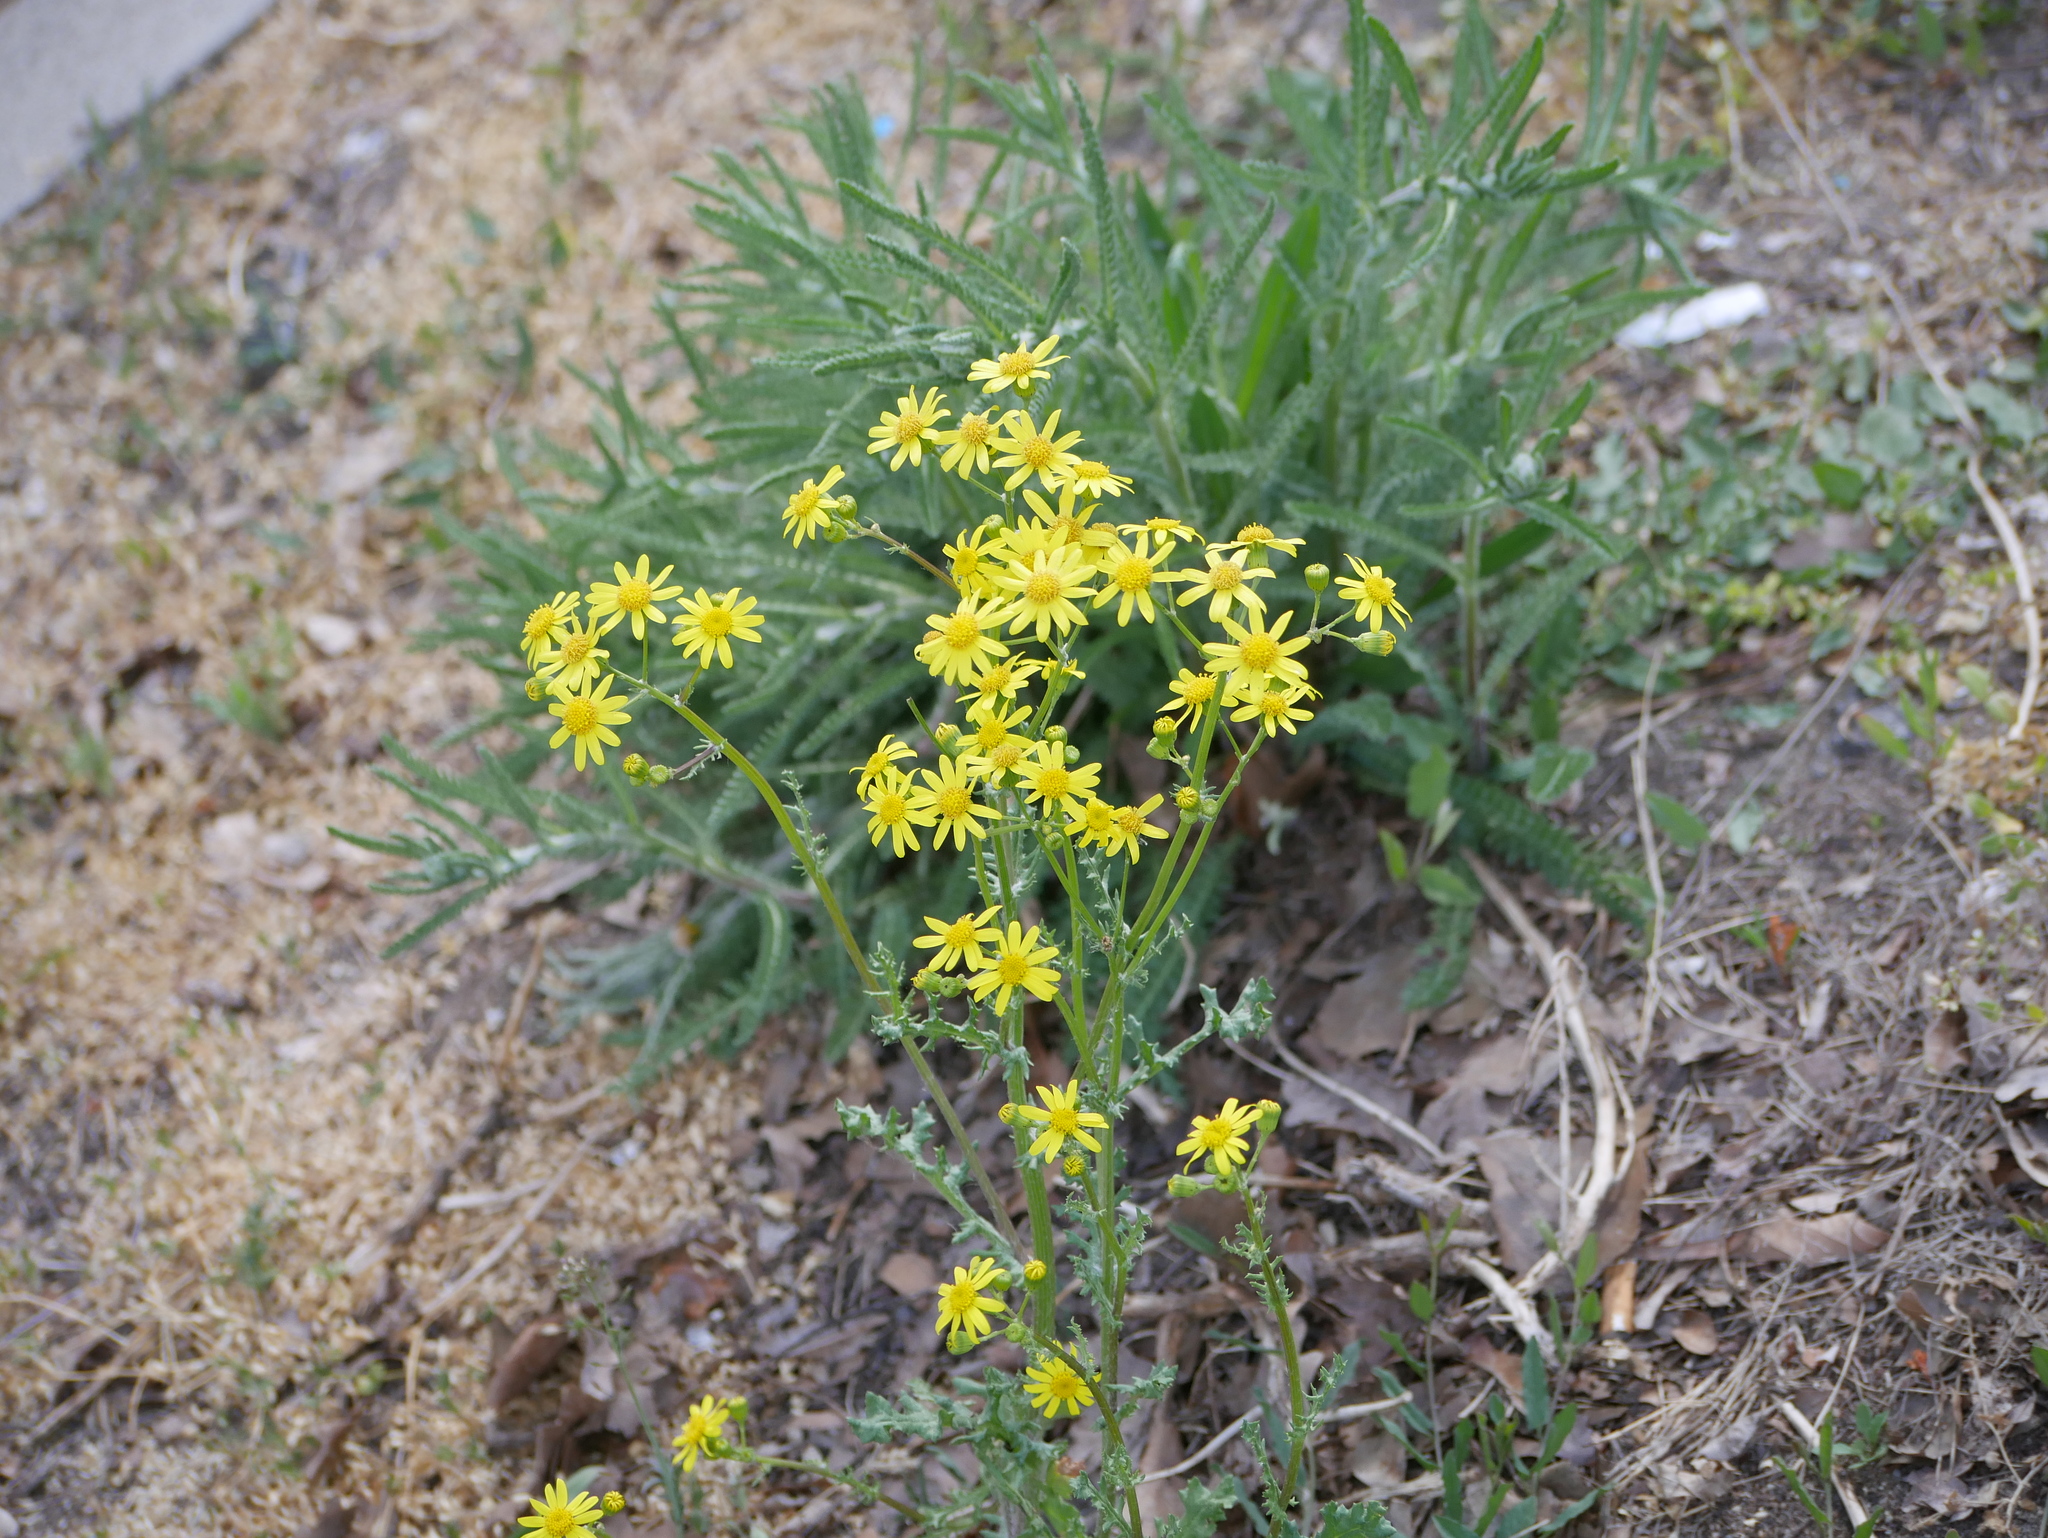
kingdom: Plantae
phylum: Tracheophyta
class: Magnoliopsida
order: Asterales
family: Asteraceae
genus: Senecio
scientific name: Senecio vernalis
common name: Eastern groundsel
